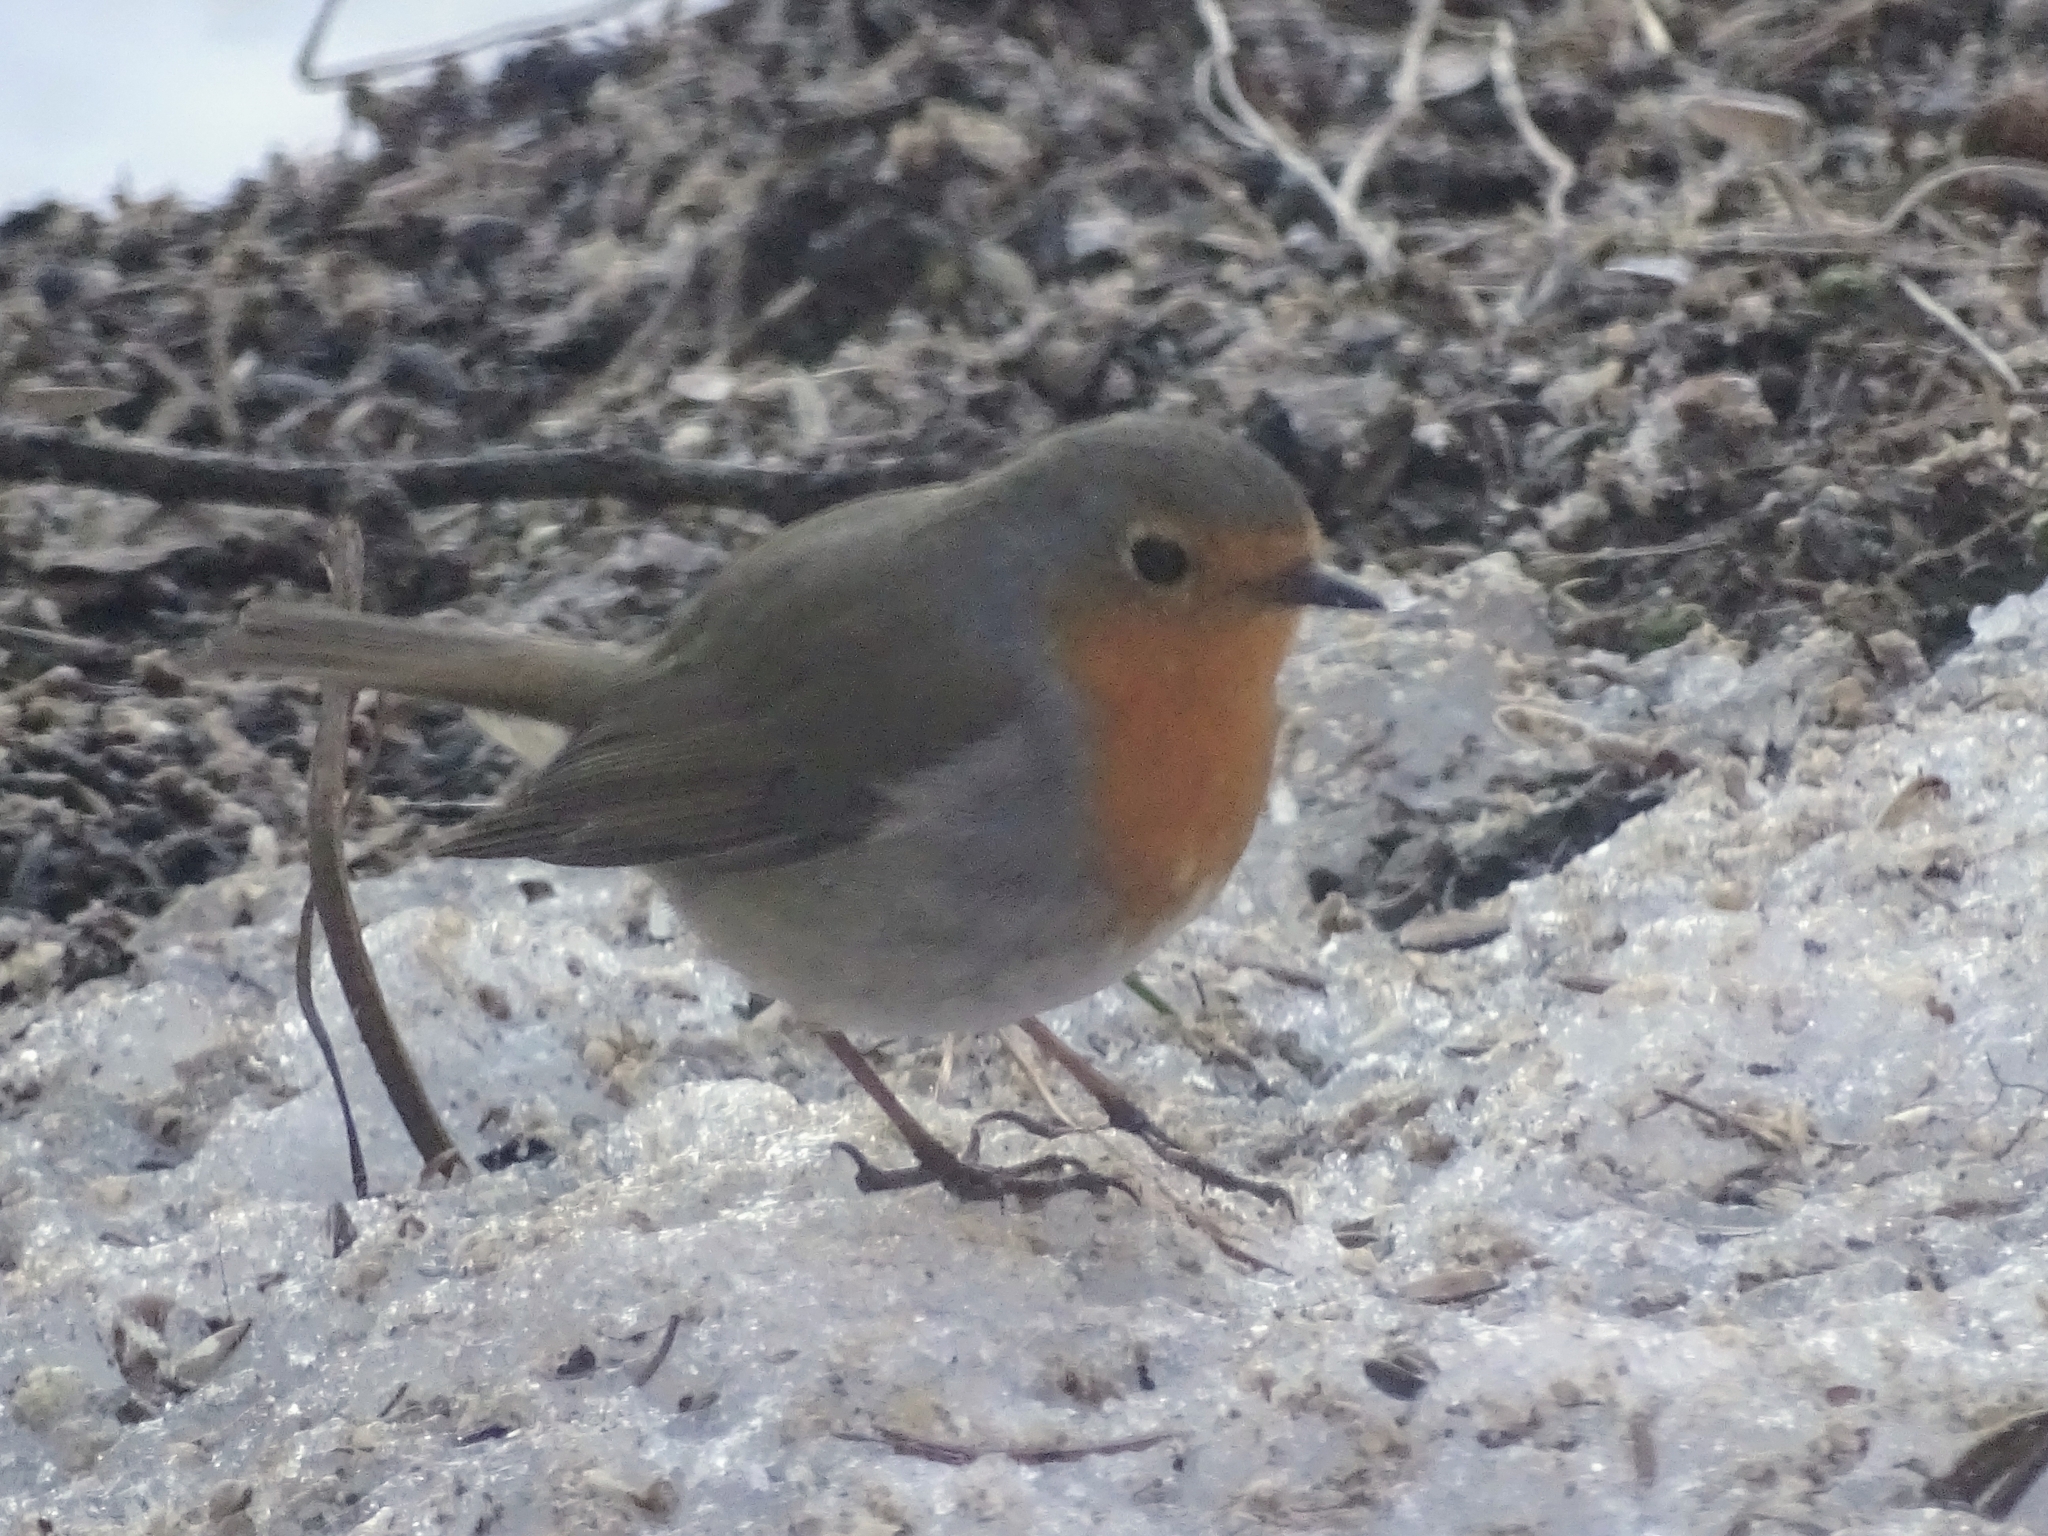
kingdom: Animalia
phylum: Chordata
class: Aves
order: Passeriformes
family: Muscicapidae
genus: Erithacus
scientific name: Erithacus rubecula
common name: European robin
